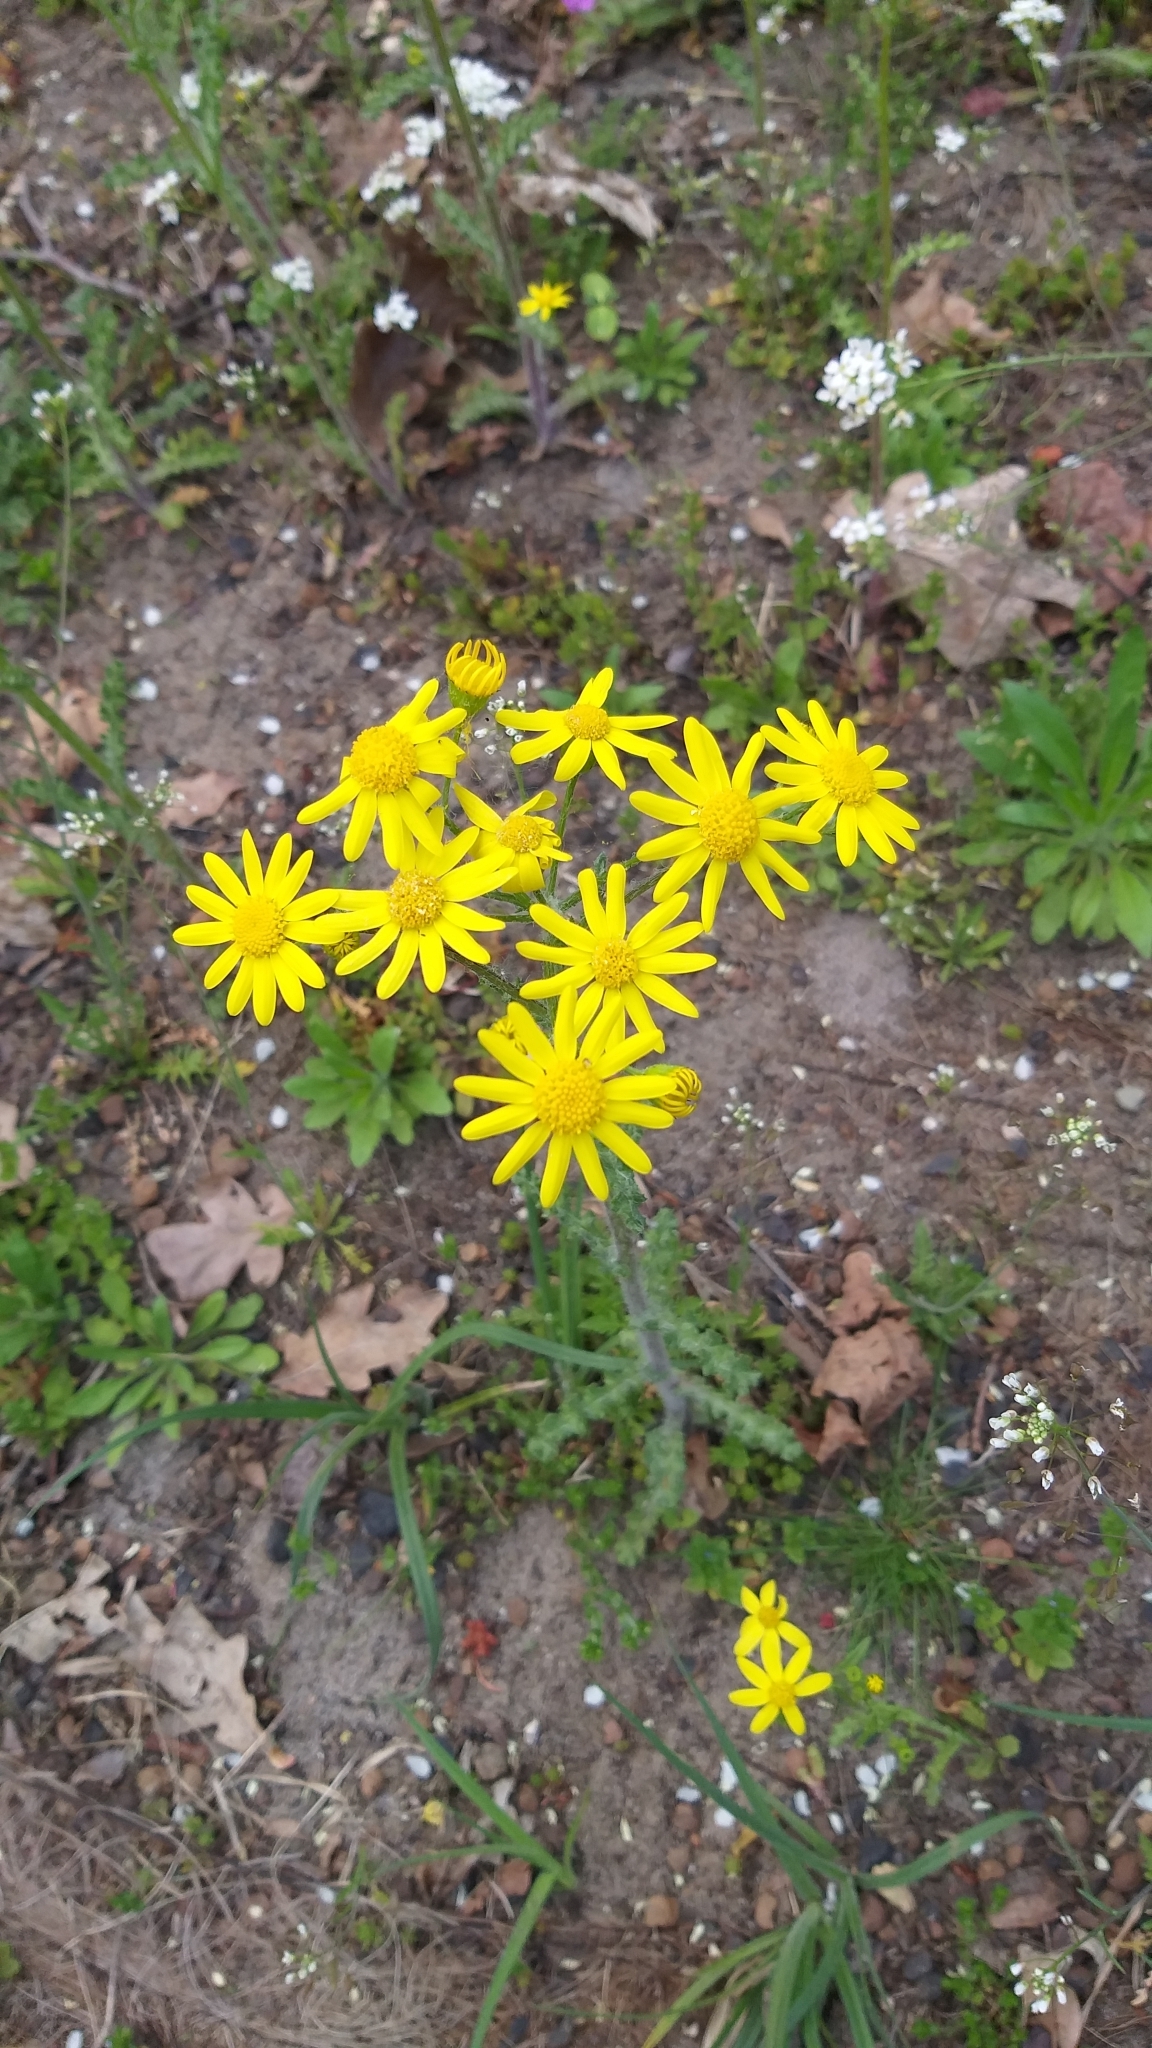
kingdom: Plantae
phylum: Tracheophyta
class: Magnoliopsida
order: Asterales
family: Asteraceae
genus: Senecio
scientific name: Senecio vernalis
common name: Eastern groundsel
